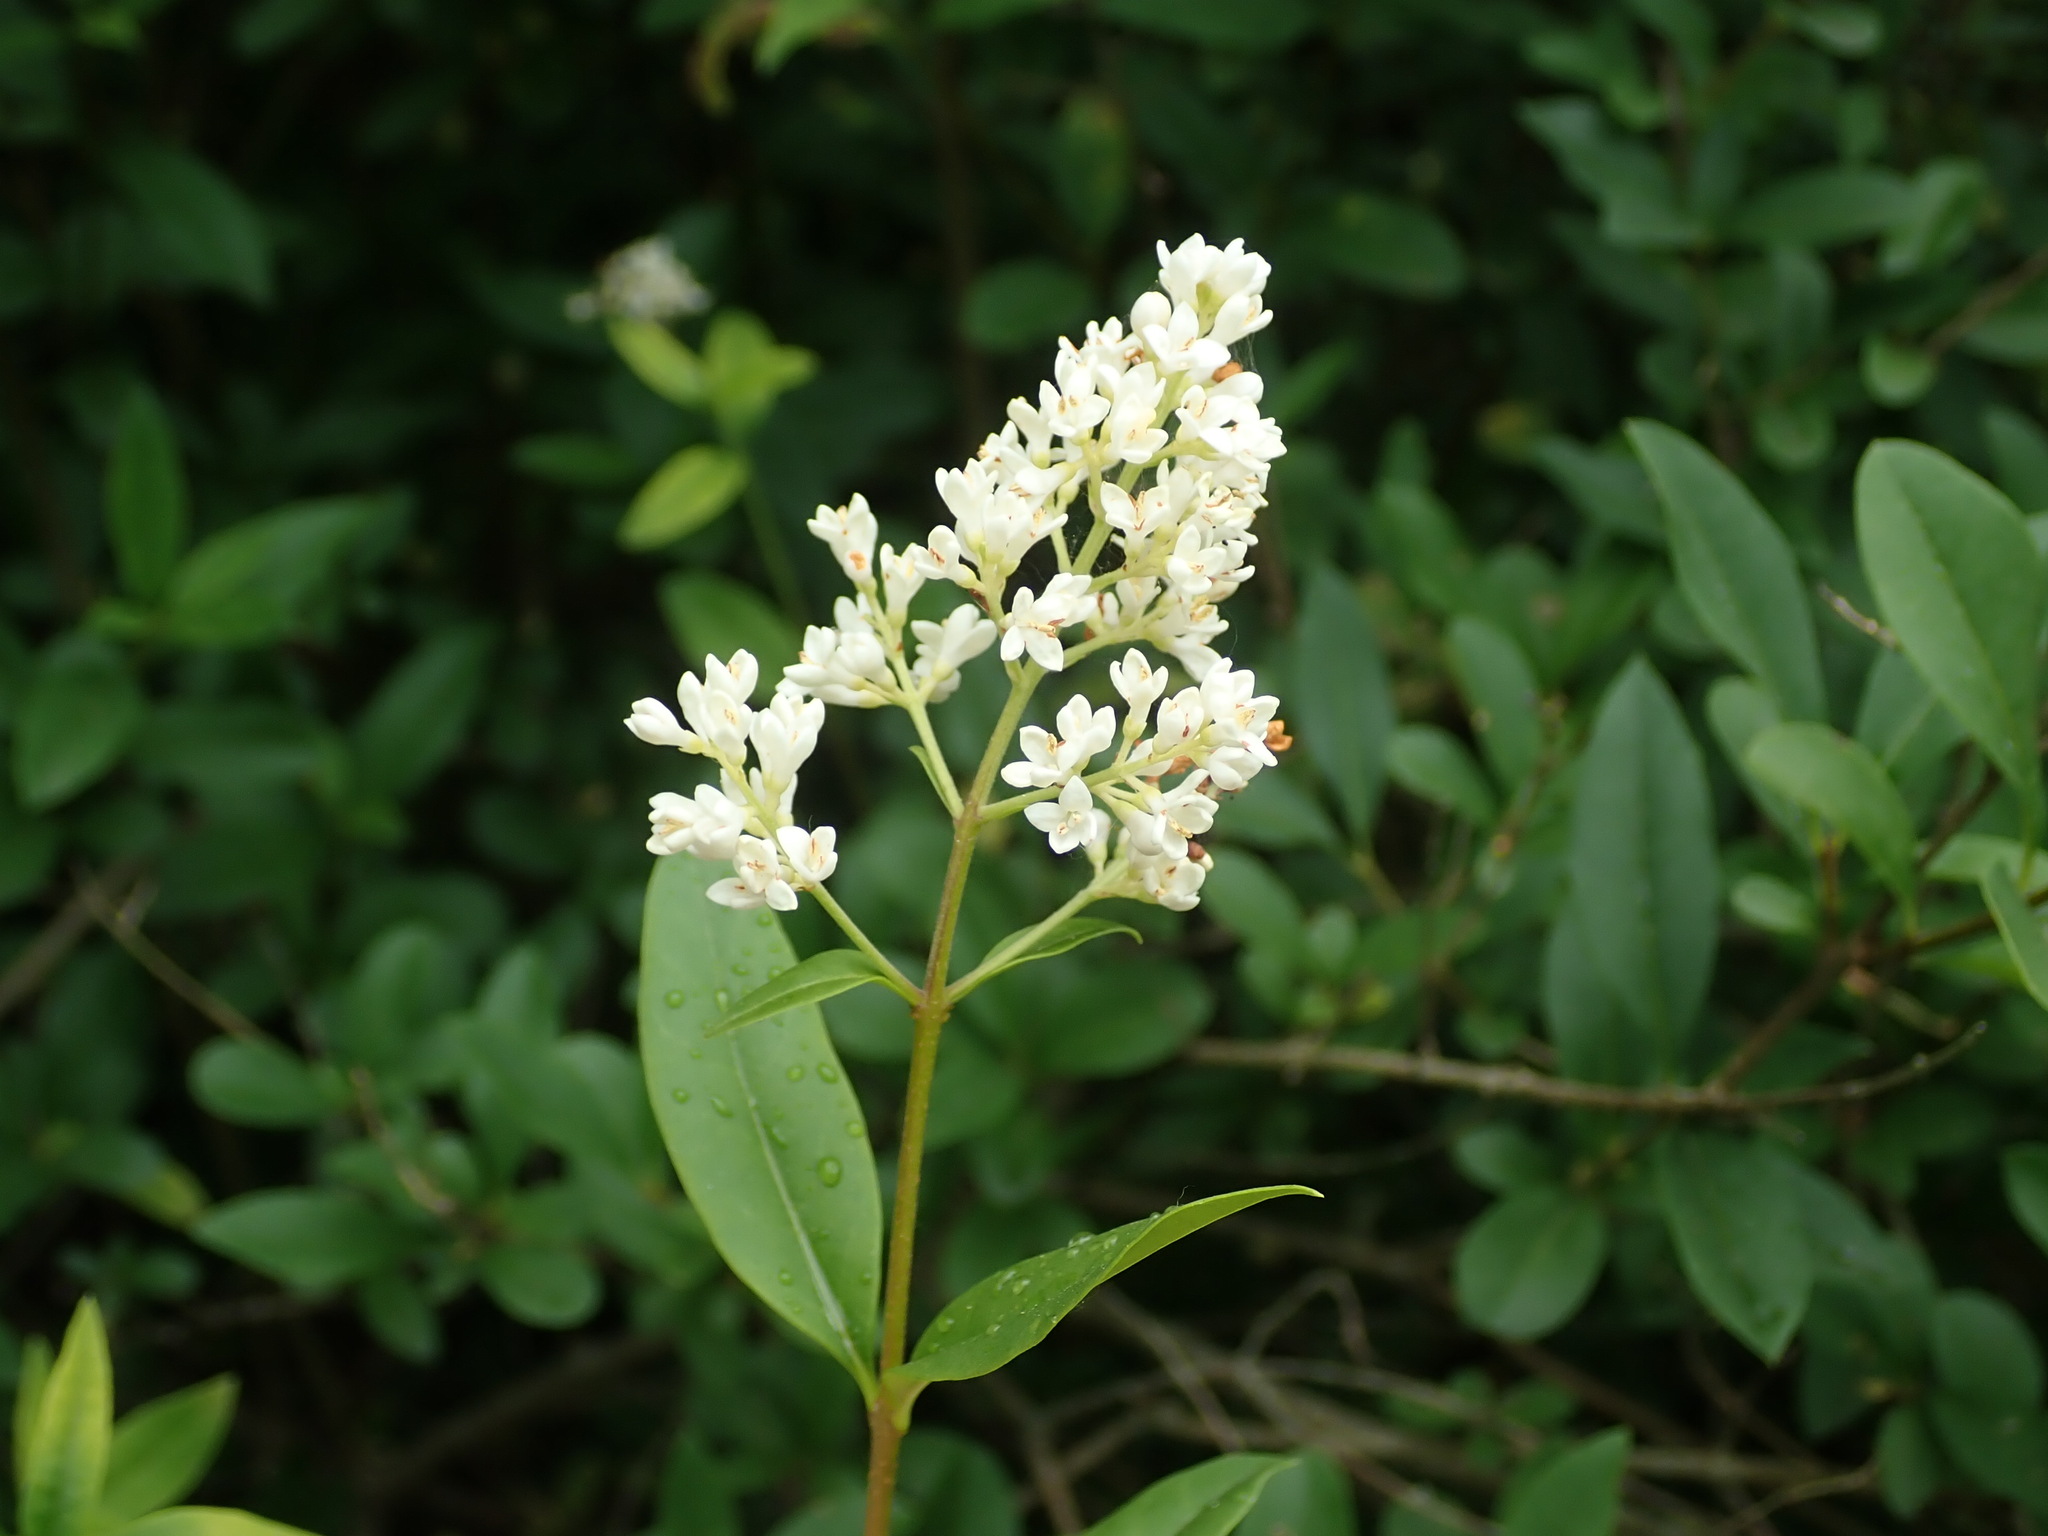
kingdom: Plantae
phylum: Tracheophyta
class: Magnoliopsida
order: Lamiales
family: Oleaceae
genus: Ligustrum
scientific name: Ligustrum vulgare
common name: Wild privet
